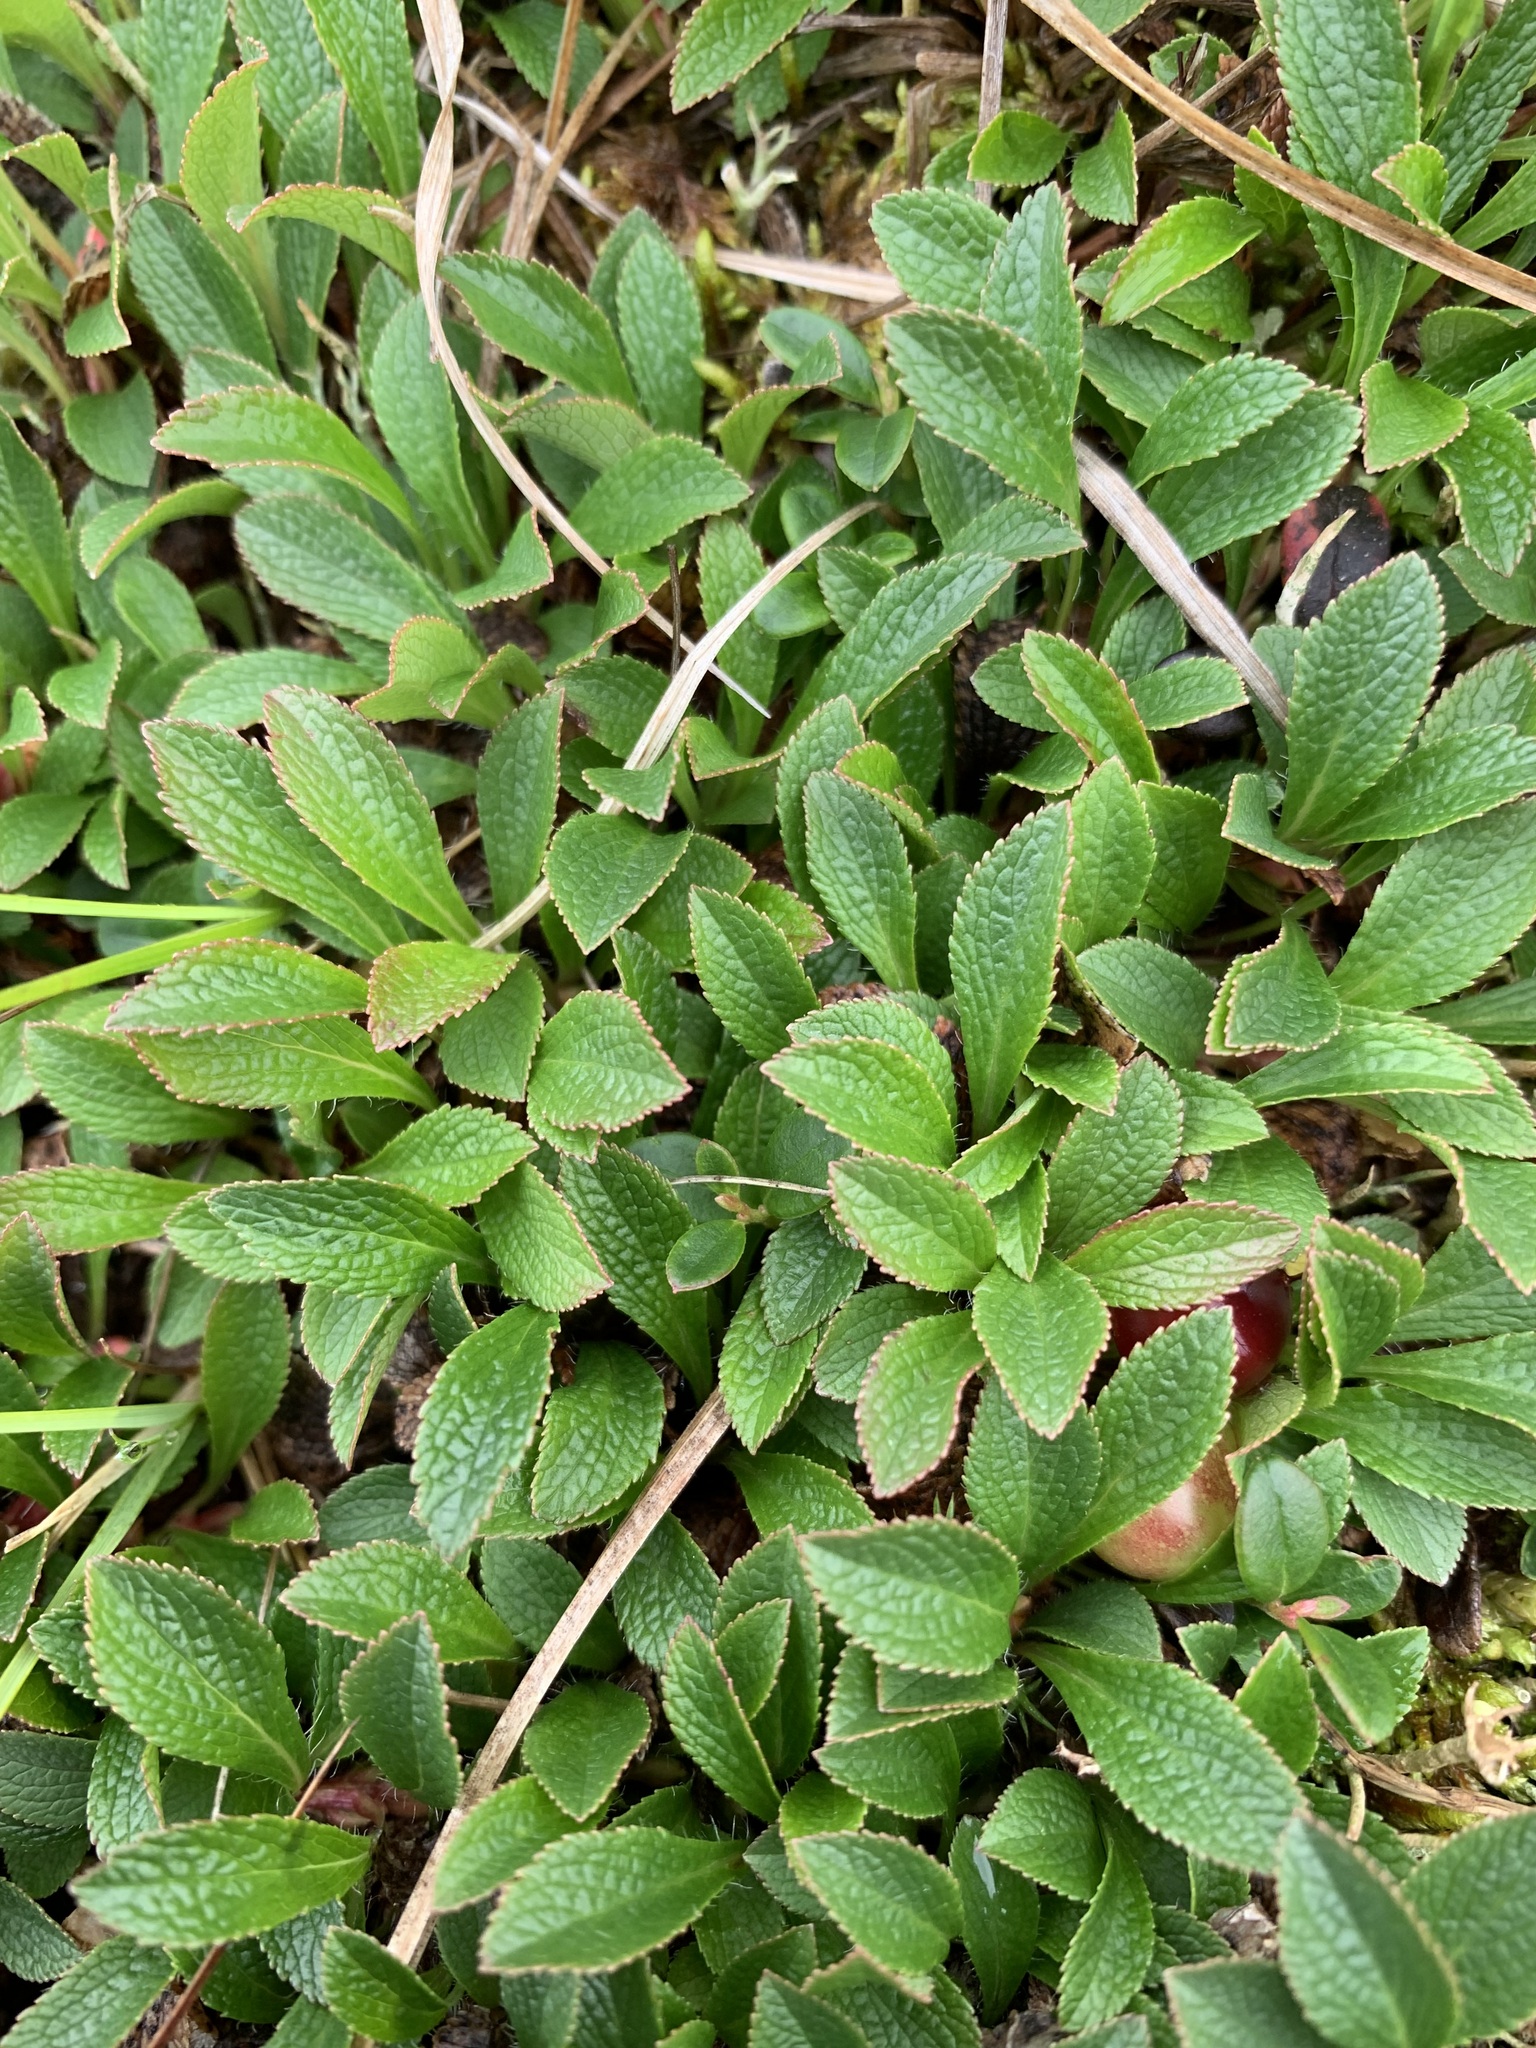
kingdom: Plantae
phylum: Tracheophyta
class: Magnoliopsida
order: Ericales
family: Ericaceae
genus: Arctostaphylos
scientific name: Arctostaphylos alpinus
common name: Alpine bearberry
